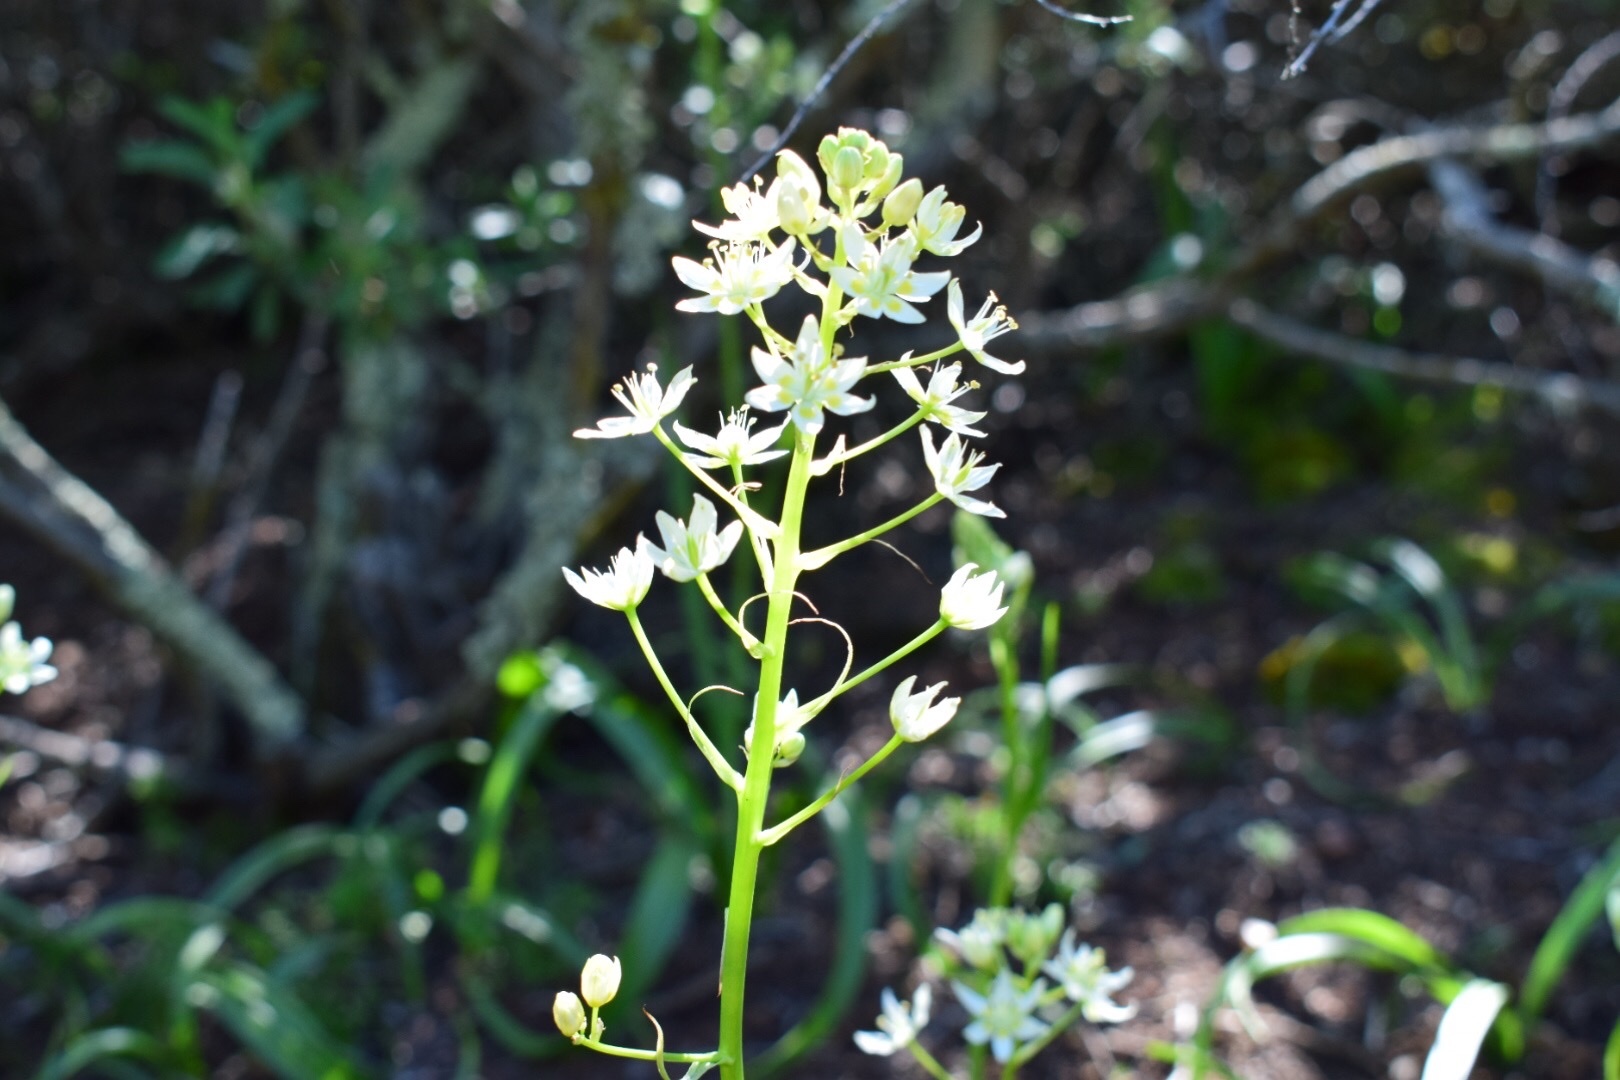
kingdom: Plantae
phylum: Tracheophyta
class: Liliopsida
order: Liliales
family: Melanthiaceae
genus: Toxicoscordion
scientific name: Toxicoscordion fremontii
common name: Fremont's death camas
